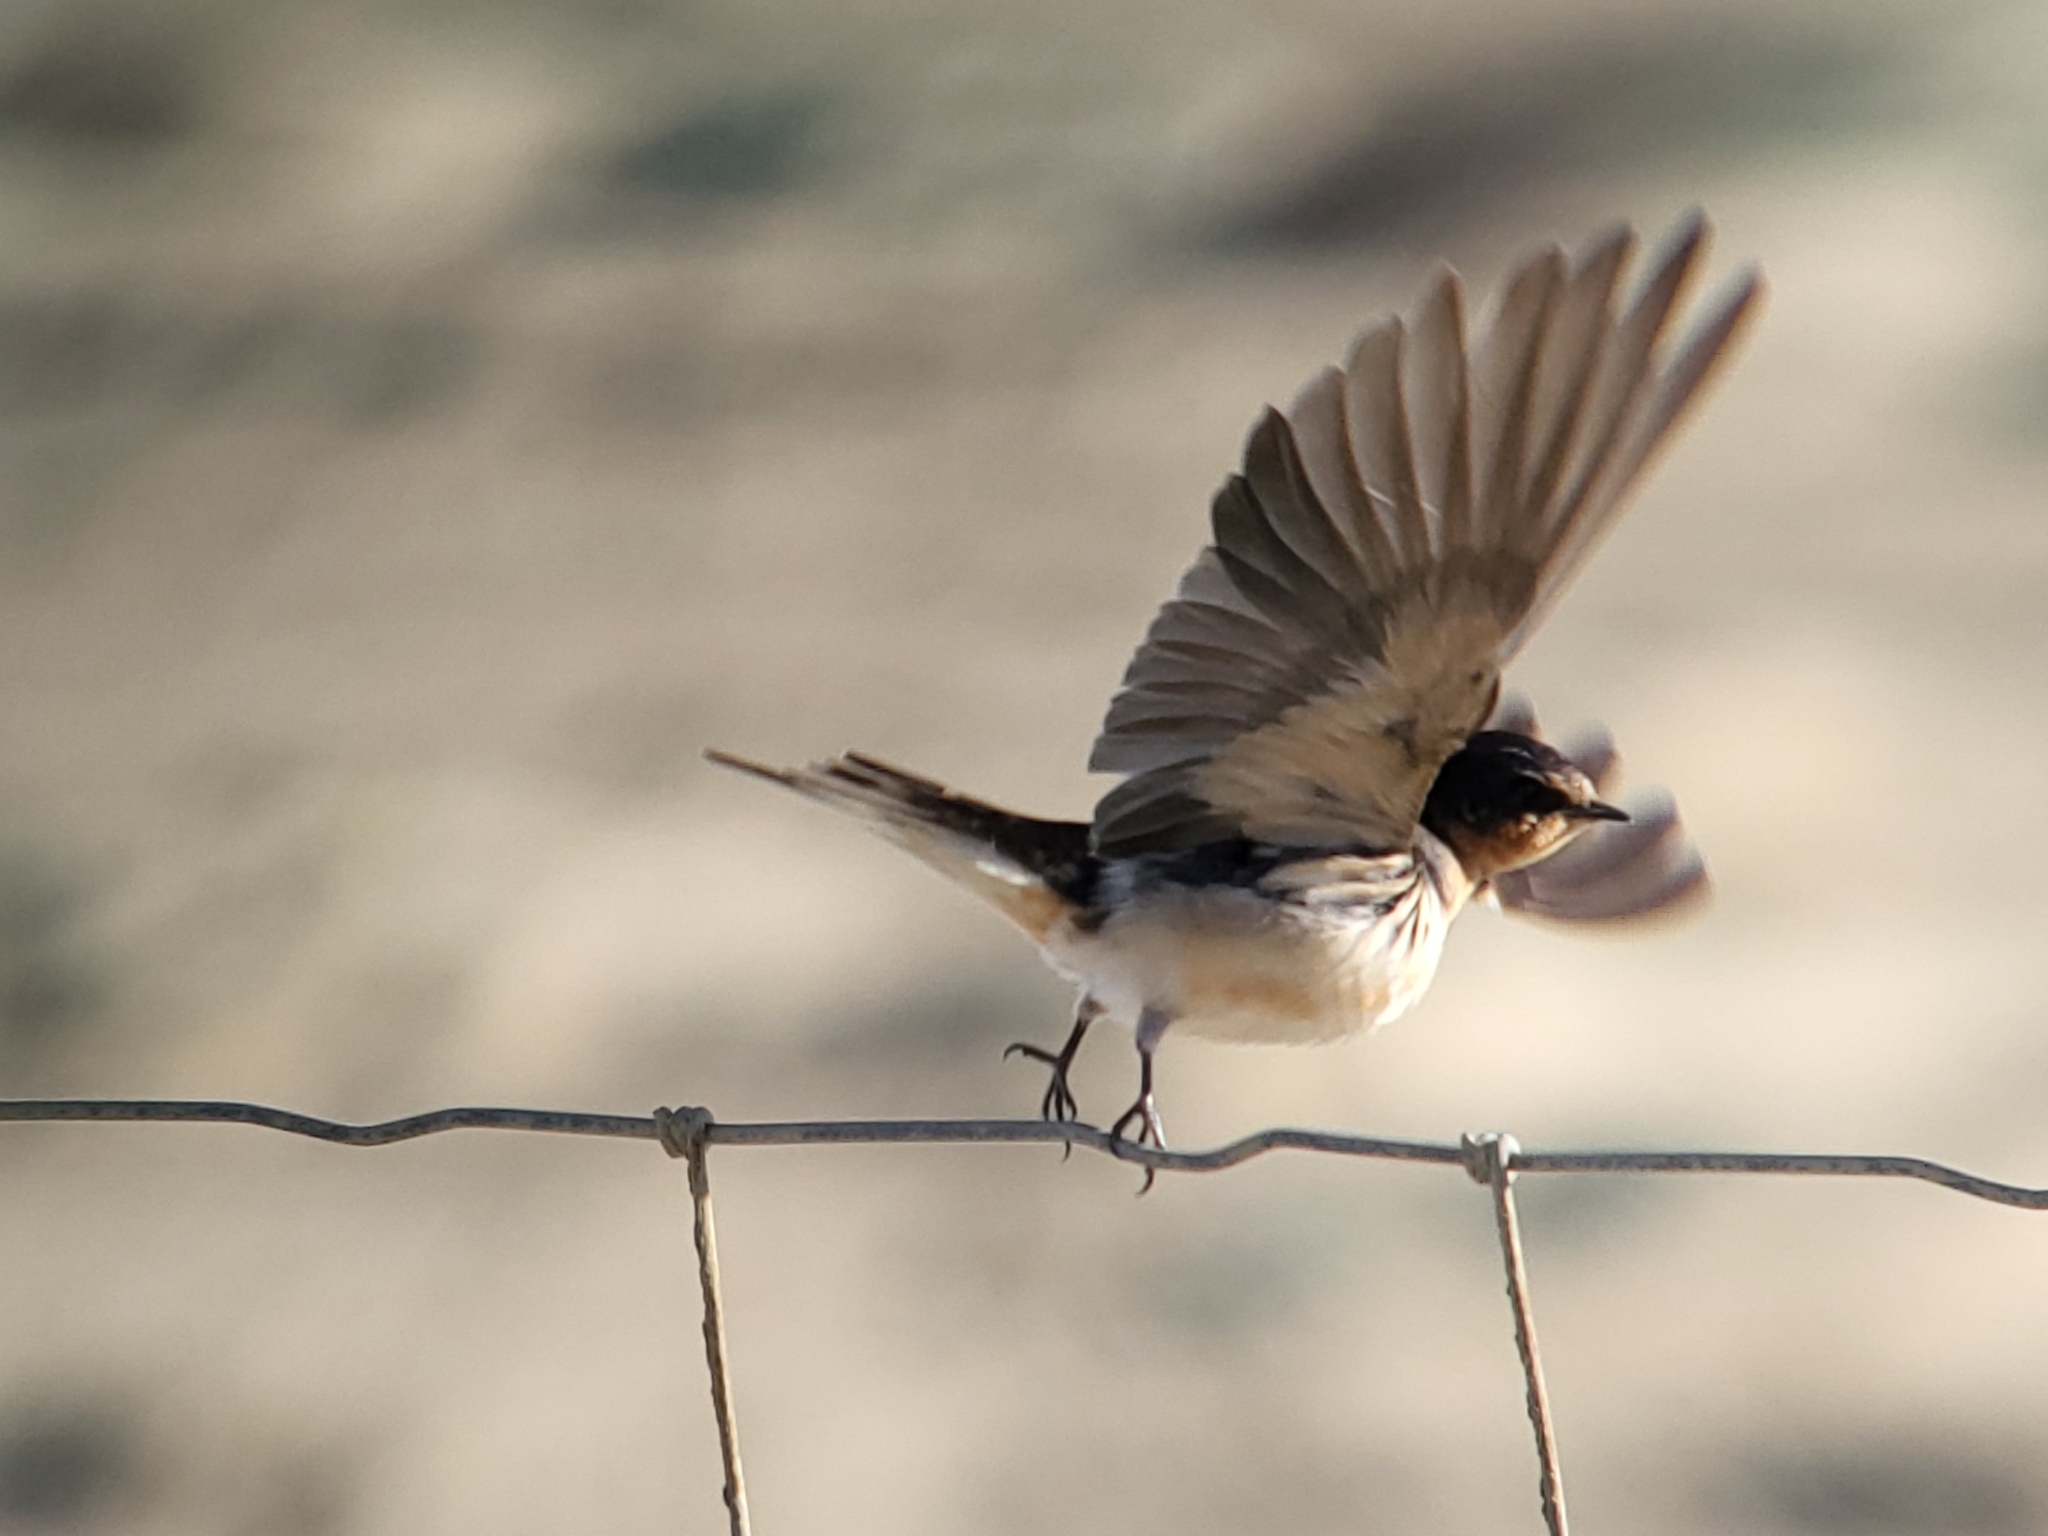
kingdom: Animalia
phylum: Chordata
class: Aves
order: Passeriformes
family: Hirundinidae
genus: Hirundo
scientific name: Hirundo rustica
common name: Barn swallow
